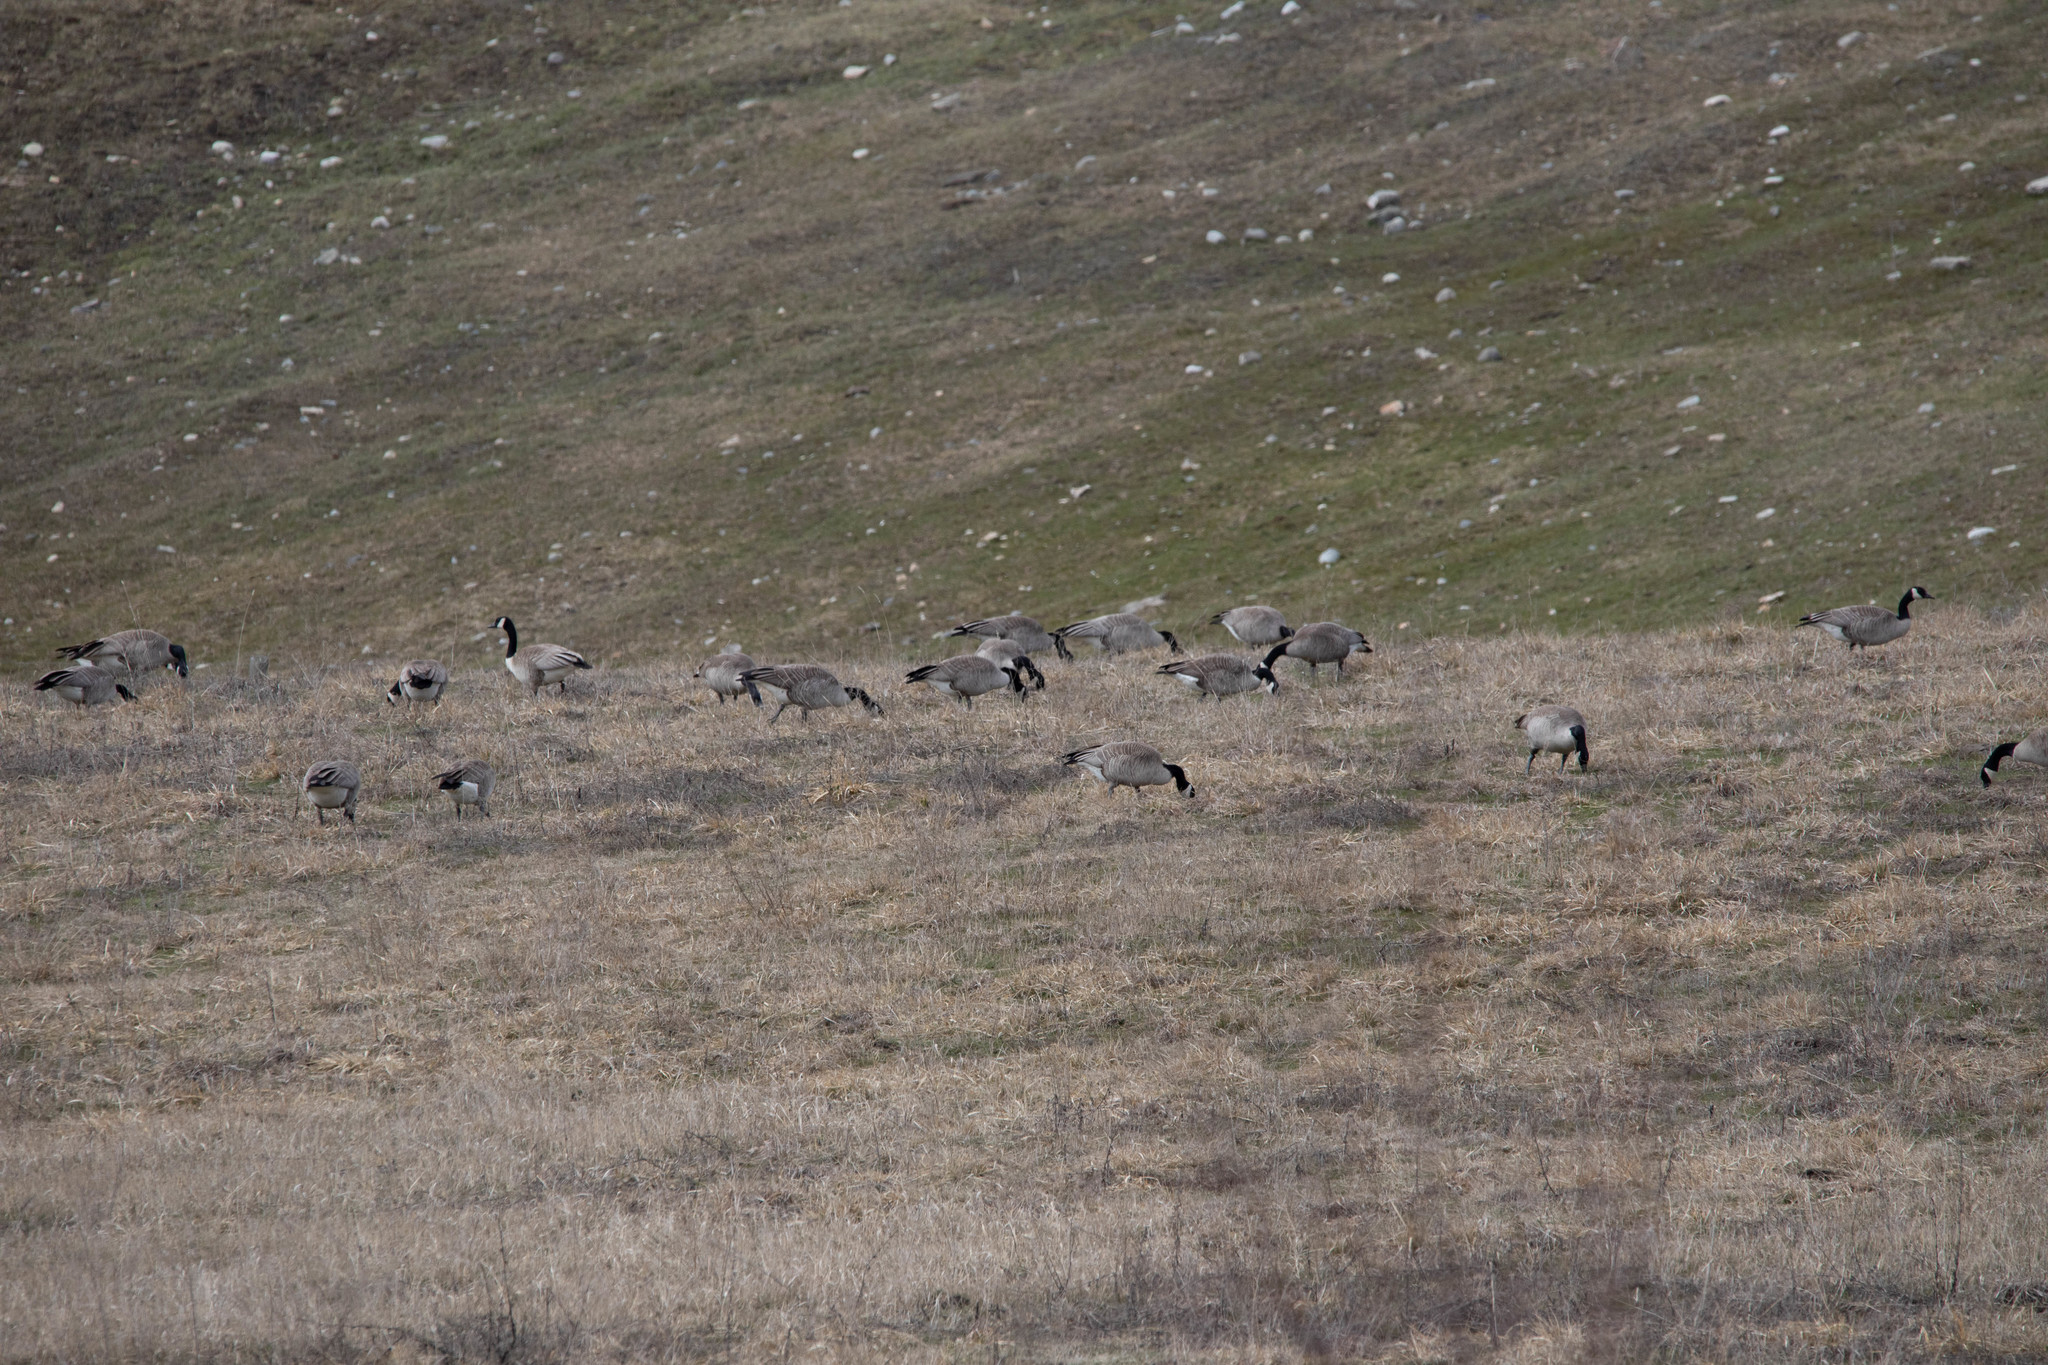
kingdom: Animalia
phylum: Chordata
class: Aves
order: Anseriformes
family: Anatidae
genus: Branta
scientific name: Branta canadensis
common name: Canada goose
